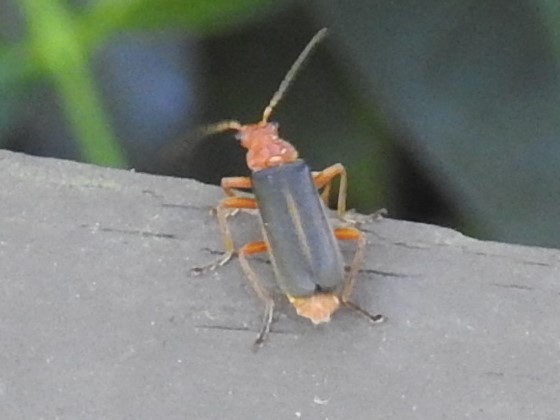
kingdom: Animalia
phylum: Arthropoda
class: Insecta
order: Coleoptera
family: Cantharidae
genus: Podabrus
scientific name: Podabrus tomentosus
